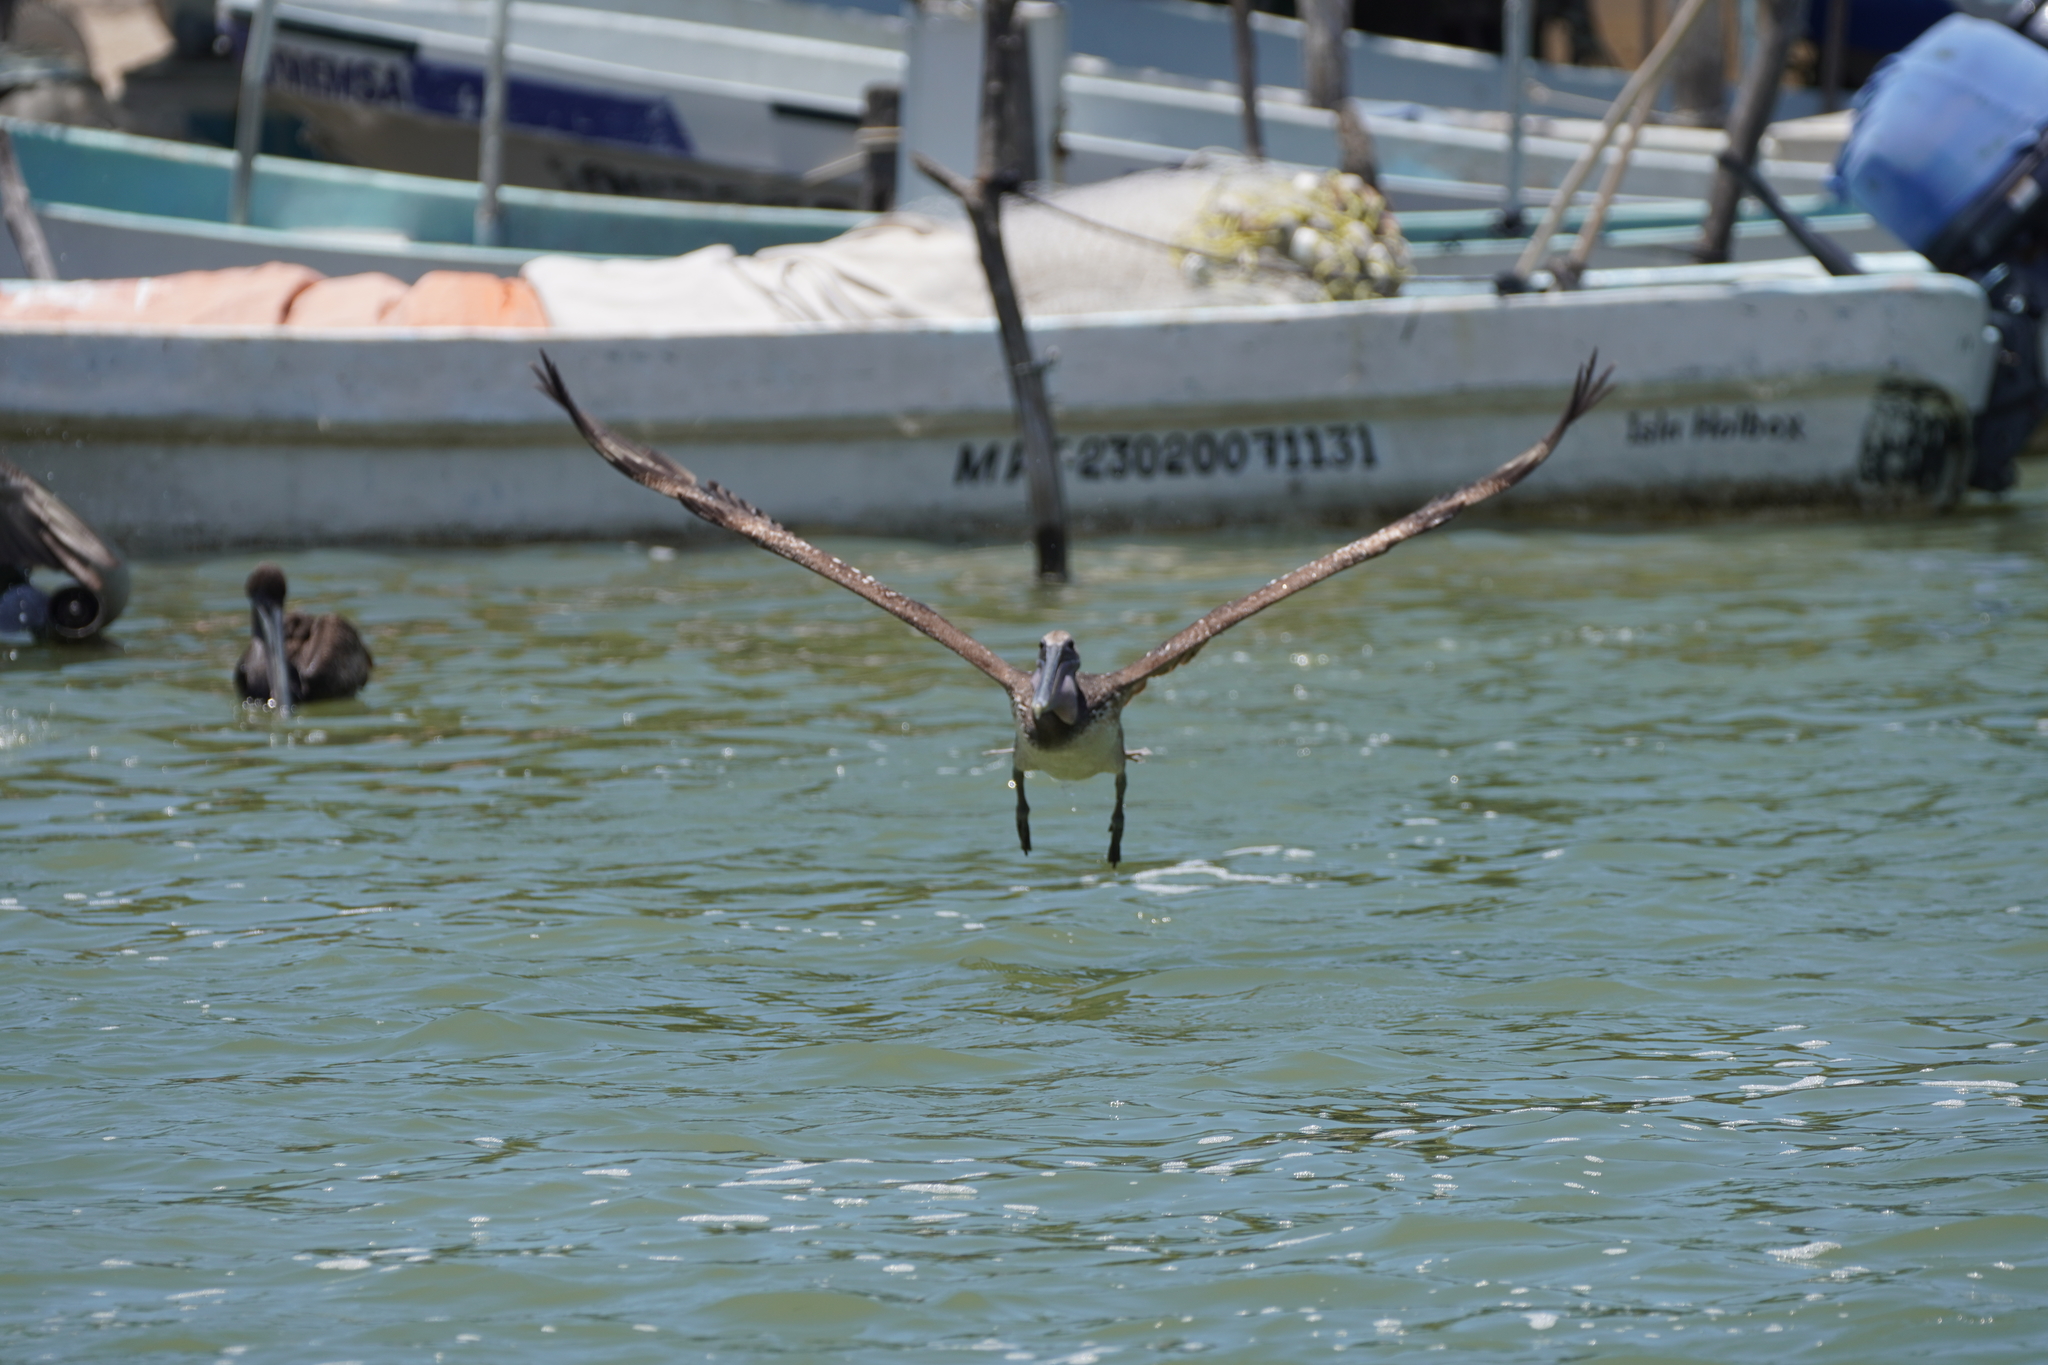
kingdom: Animalia
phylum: Chordata
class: Aves
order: Pelecaniformes
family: Pelecanidae
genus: Pelecanus
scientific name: Pelecanus occidentalis
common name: Brown pelican
